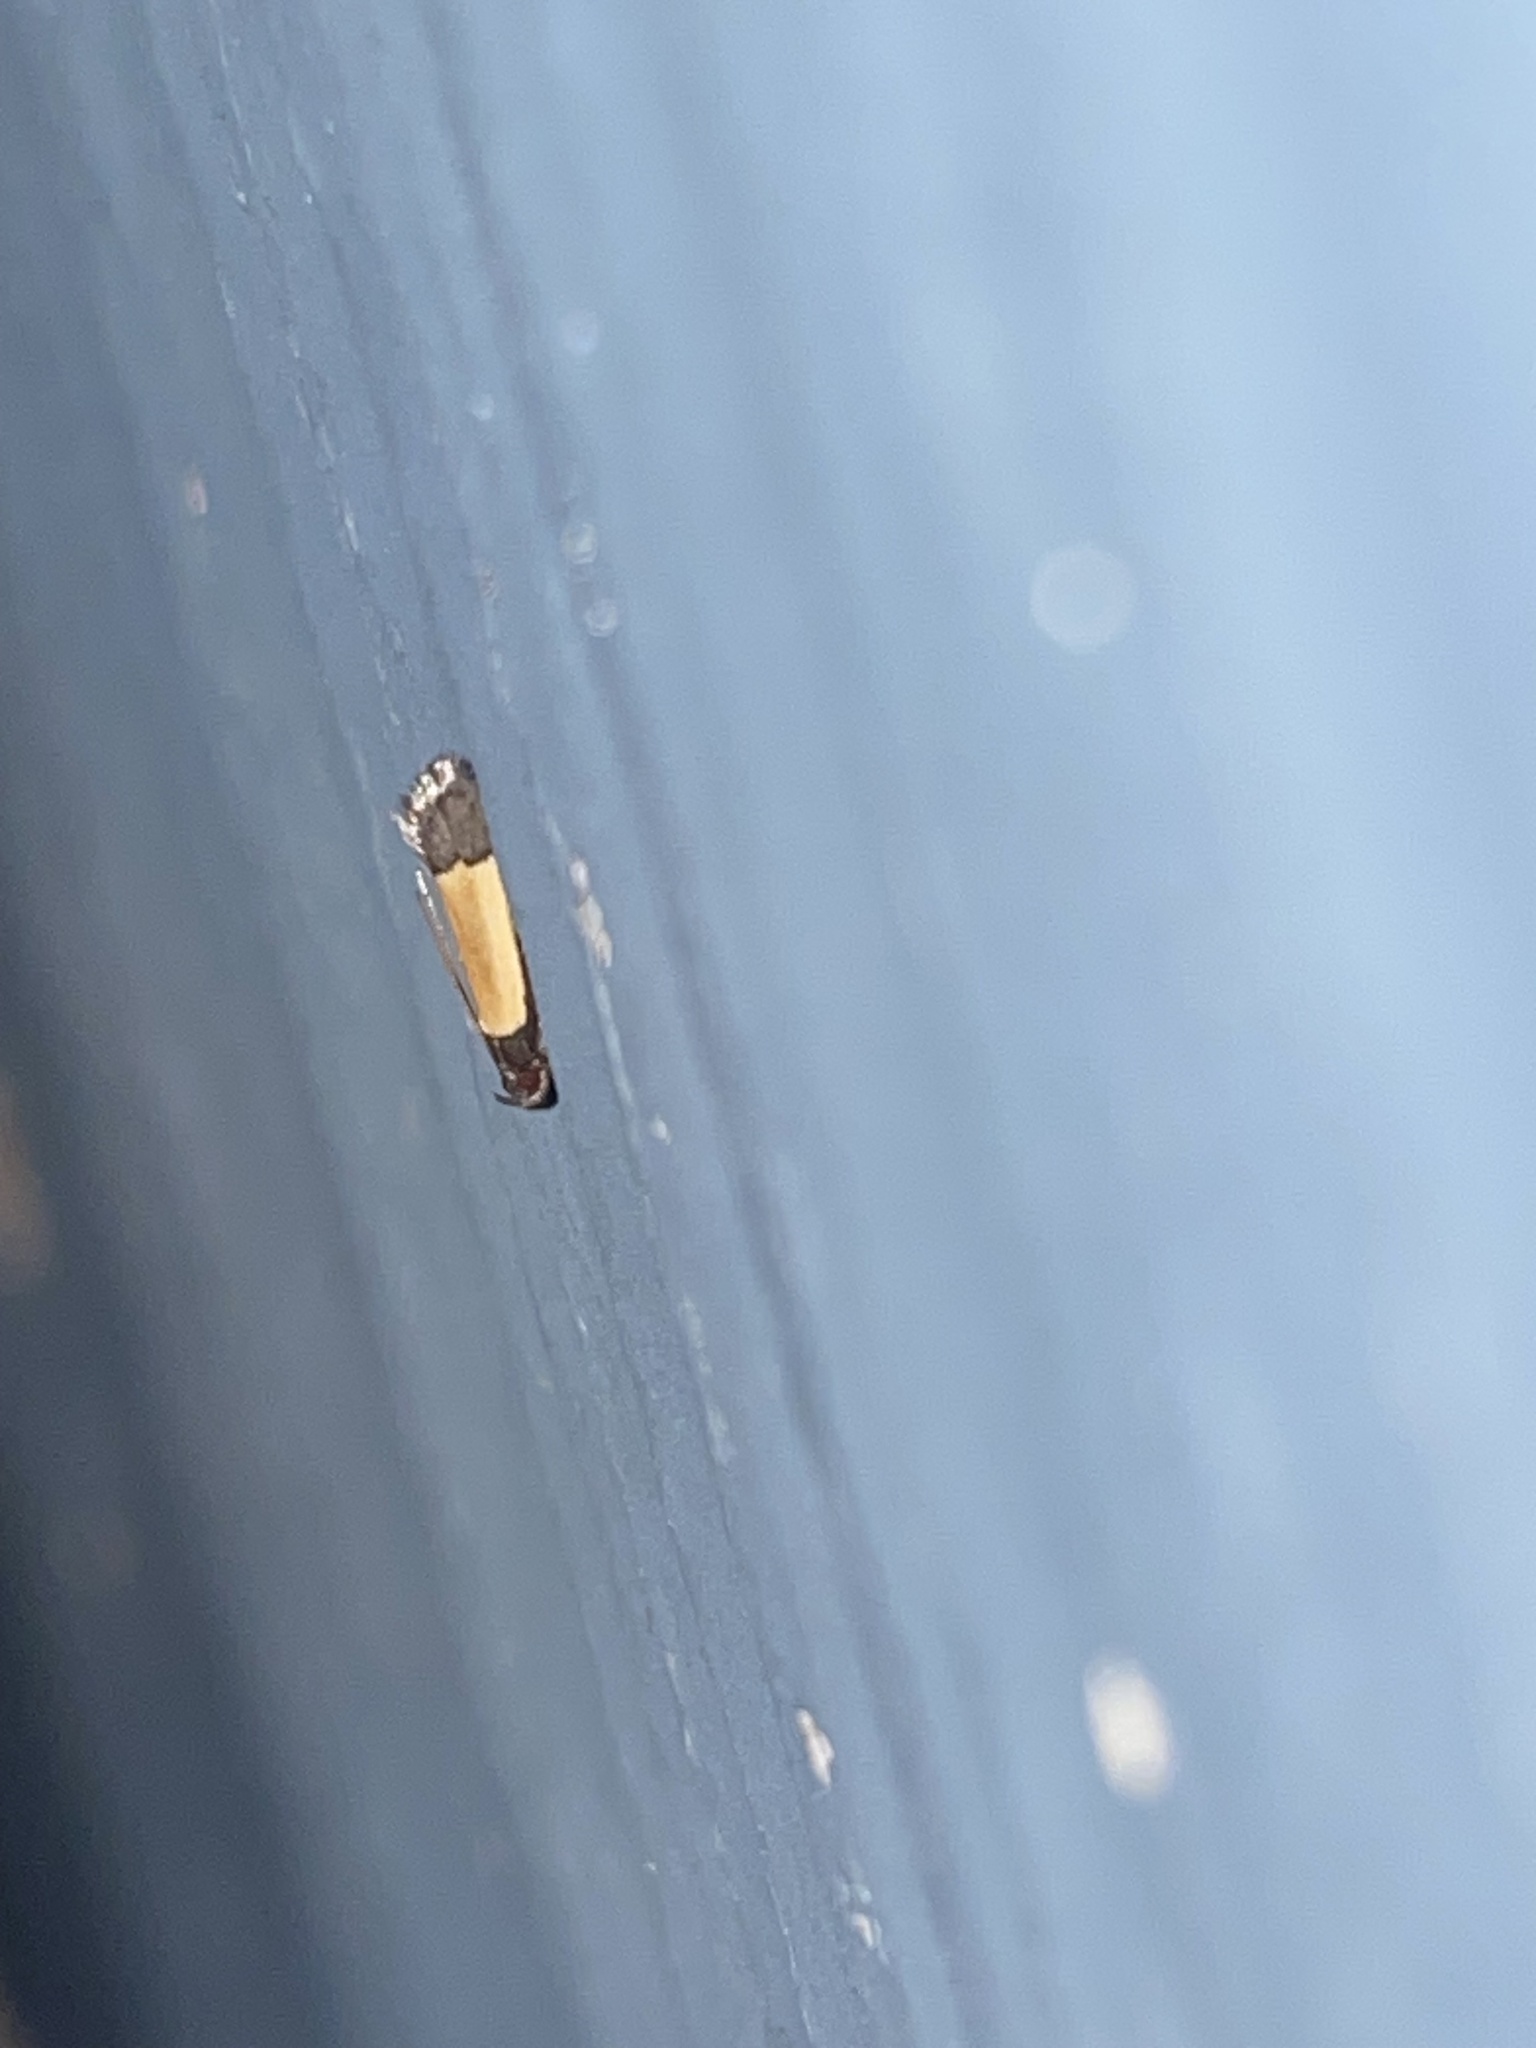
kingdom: Animalia
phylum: Arthropoda
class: Insecta
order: Lepidoptera
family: Gelechiidae
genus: Anacampsis
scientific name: Anacampsis coverdalella
